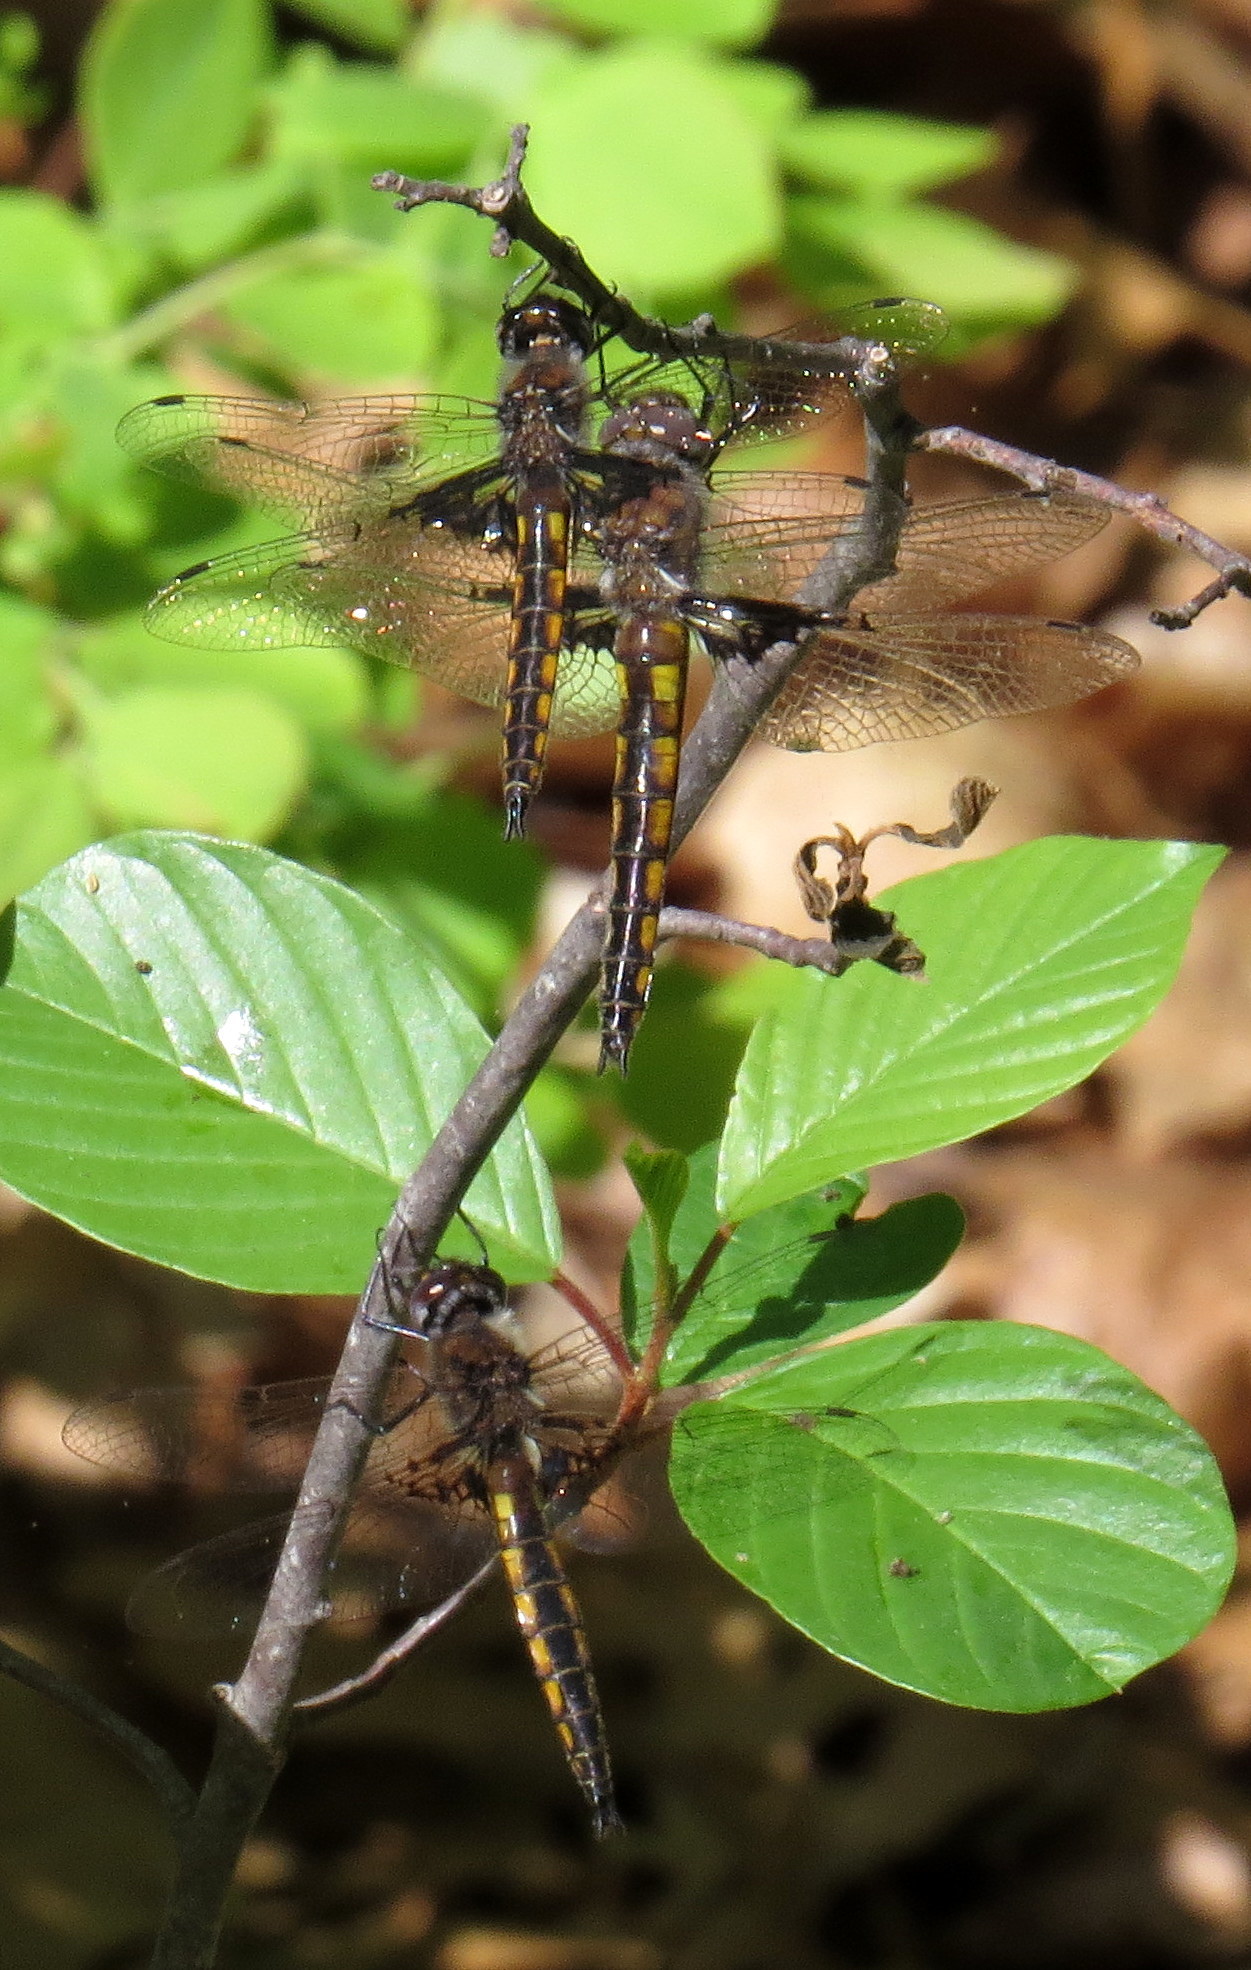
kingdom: Animalia
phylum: Arthropoda
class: Insecta
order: Odonata
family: Corduliidae
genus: Epitheca
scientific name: Epitheca semiaquea
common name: Mantled baskettail
